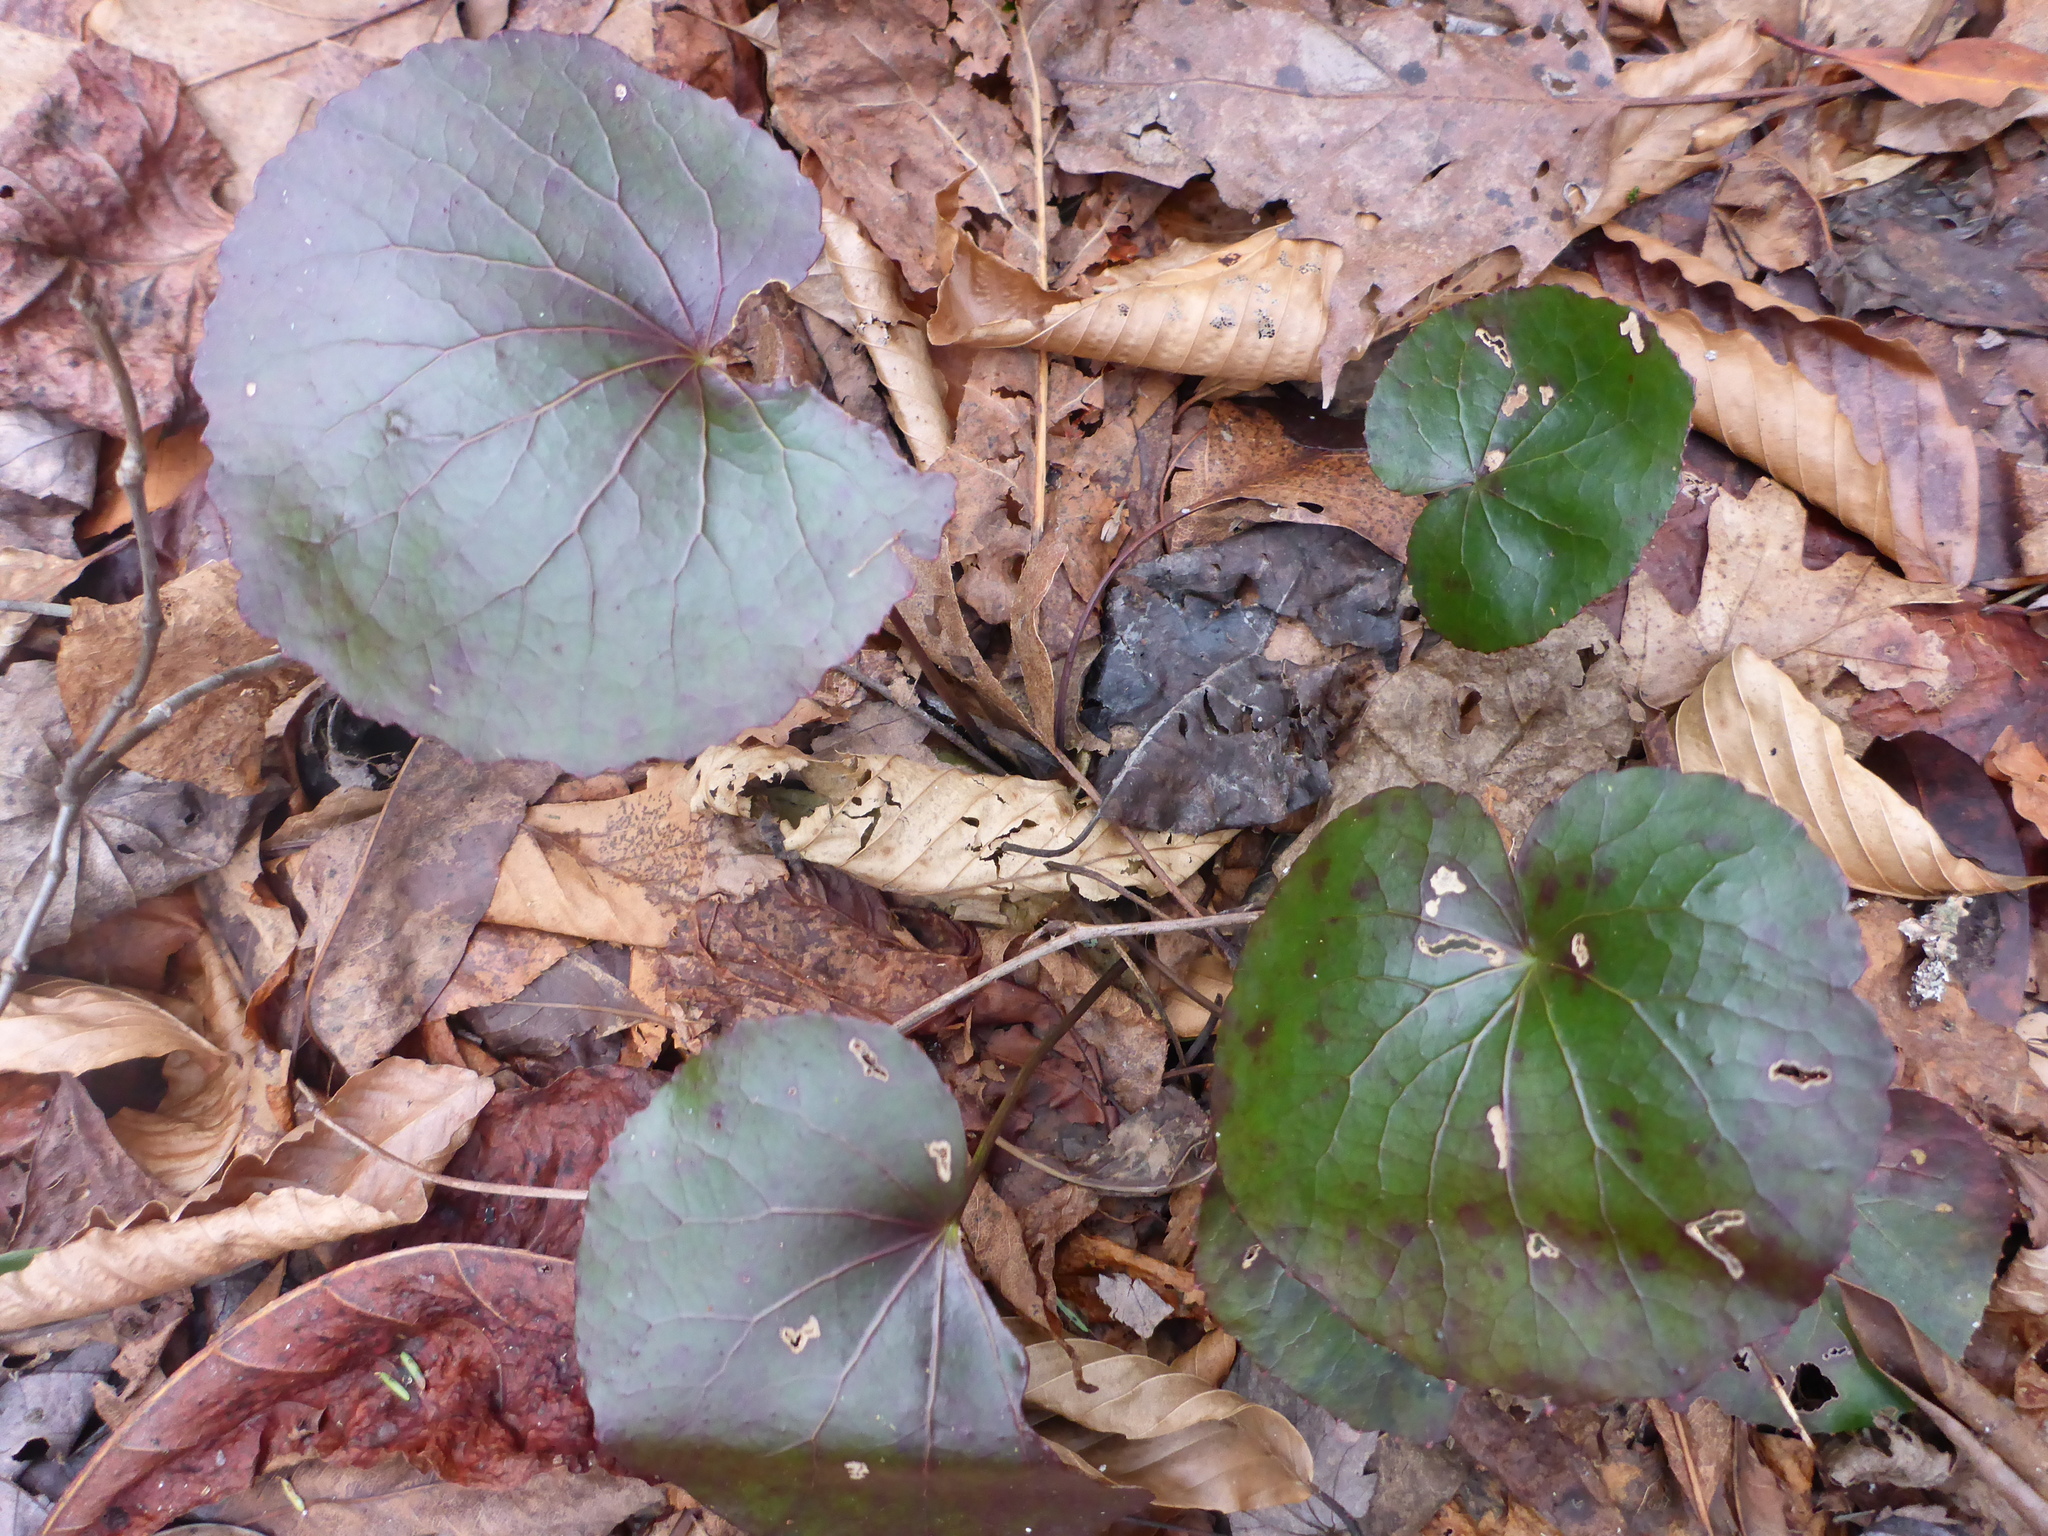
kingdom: Plantae
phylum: Tracheophyta
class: Magnoliopsida
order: Ericales
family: Diapensiaceae
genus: Galax
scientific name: Galax urceolata
